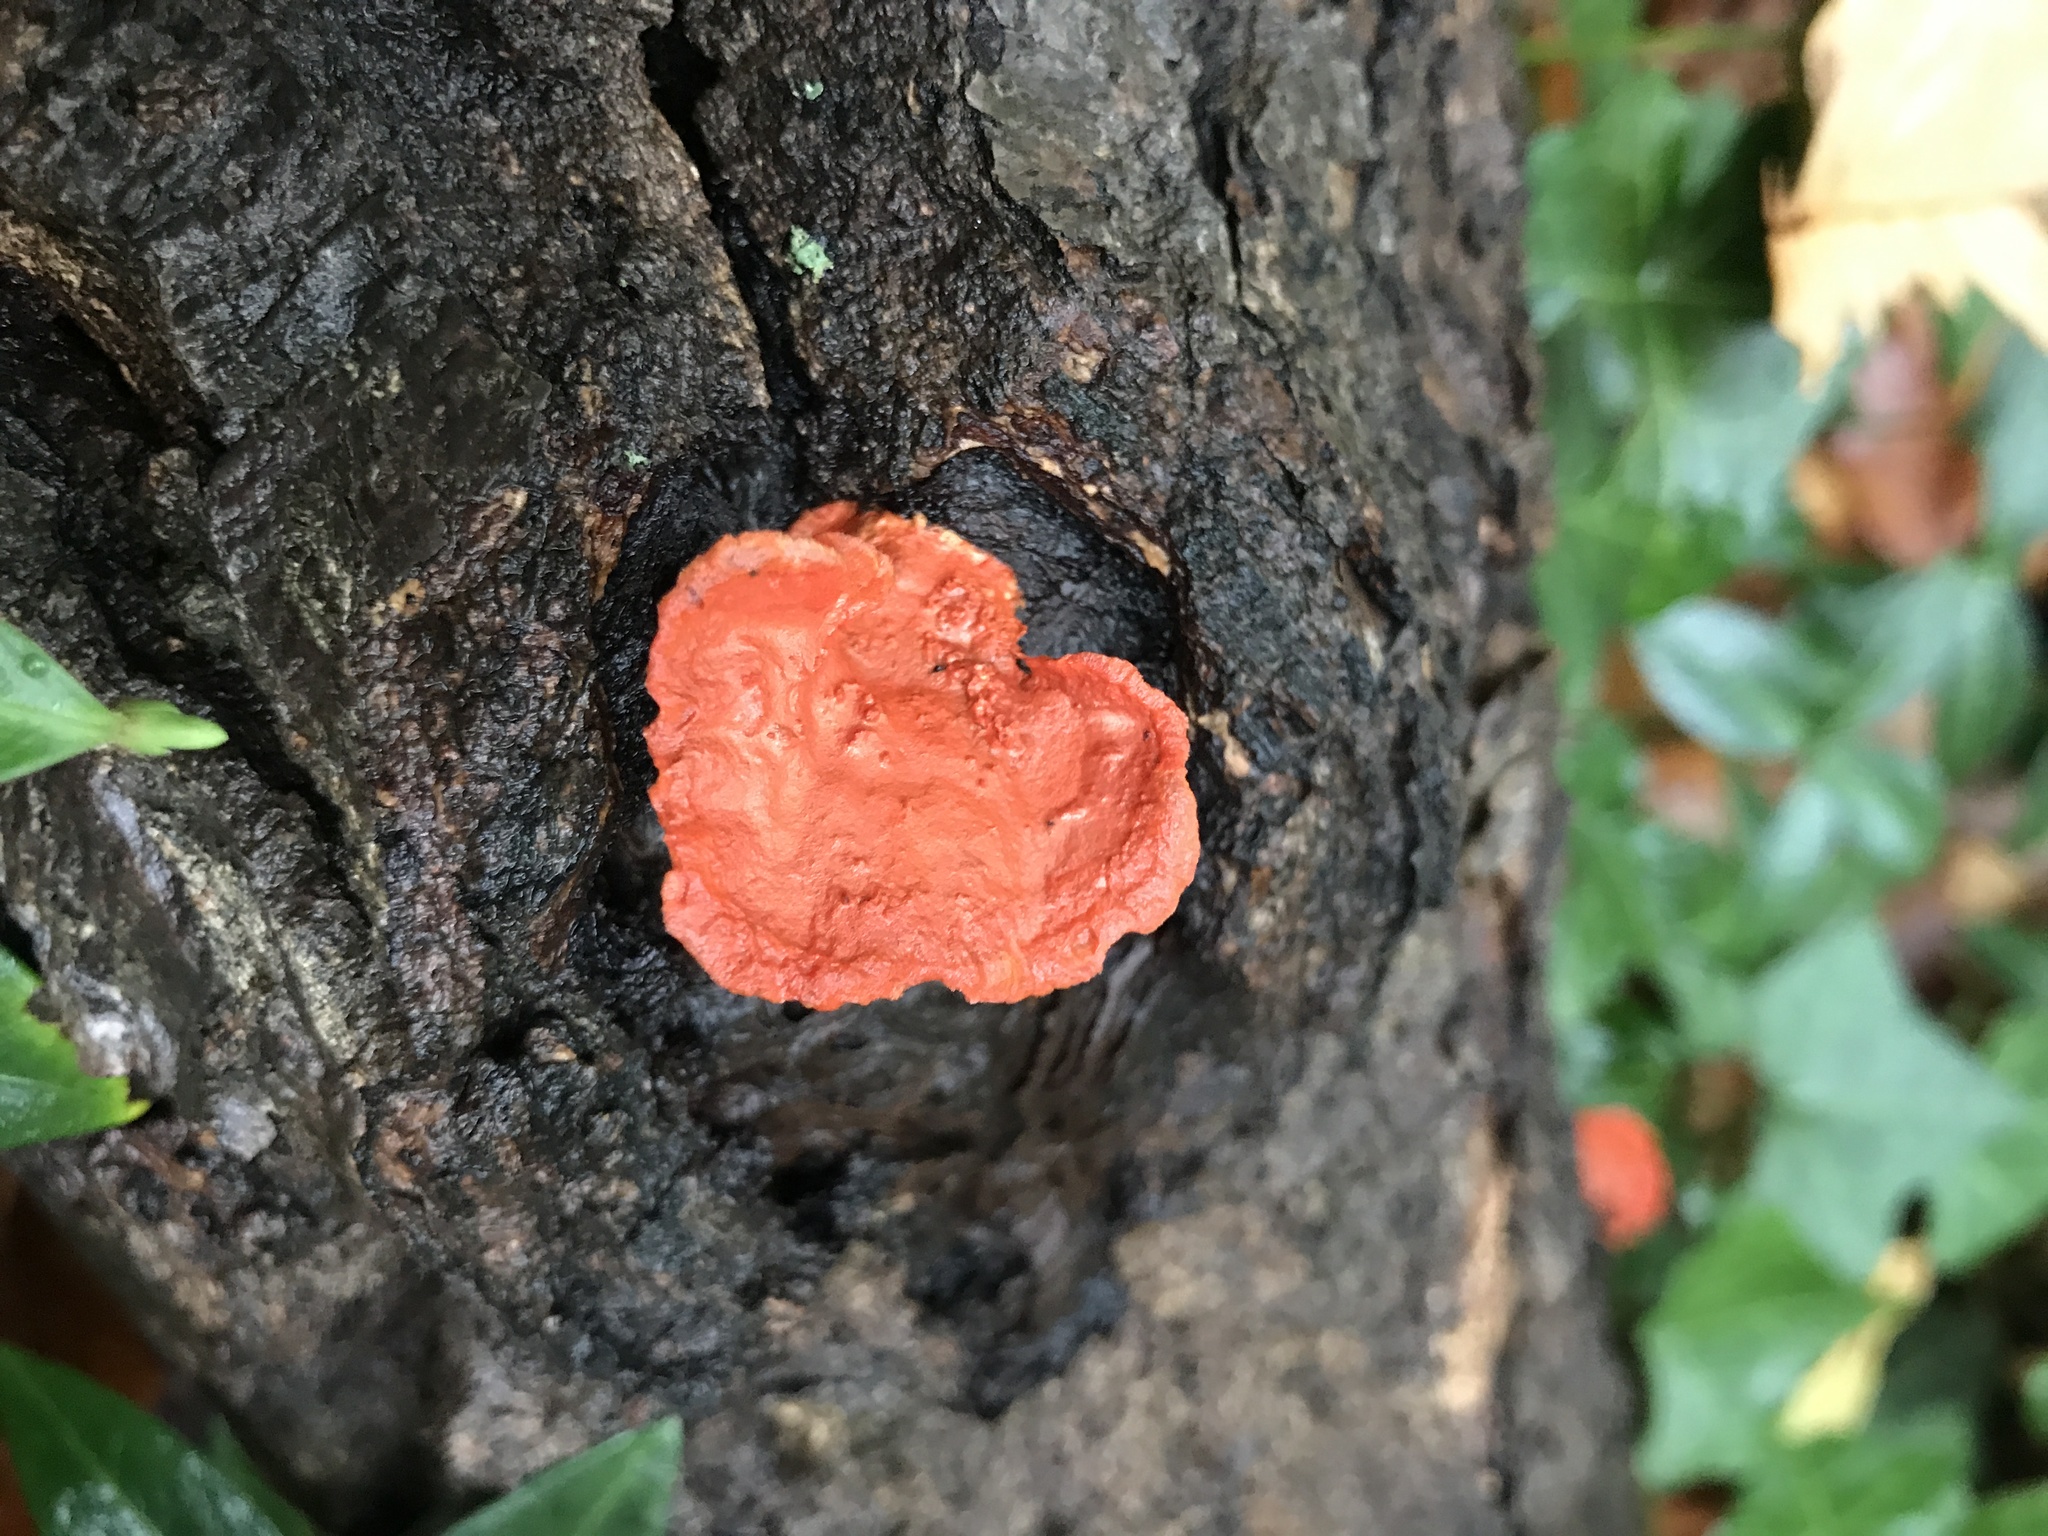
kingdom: Fungi
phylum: Basidiomycota
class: Agaricomycetes
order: Polyporales
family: Polyporaceae
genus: Trametes
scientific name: Trametes cinnabarina
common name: Northern cinnabar polypore
